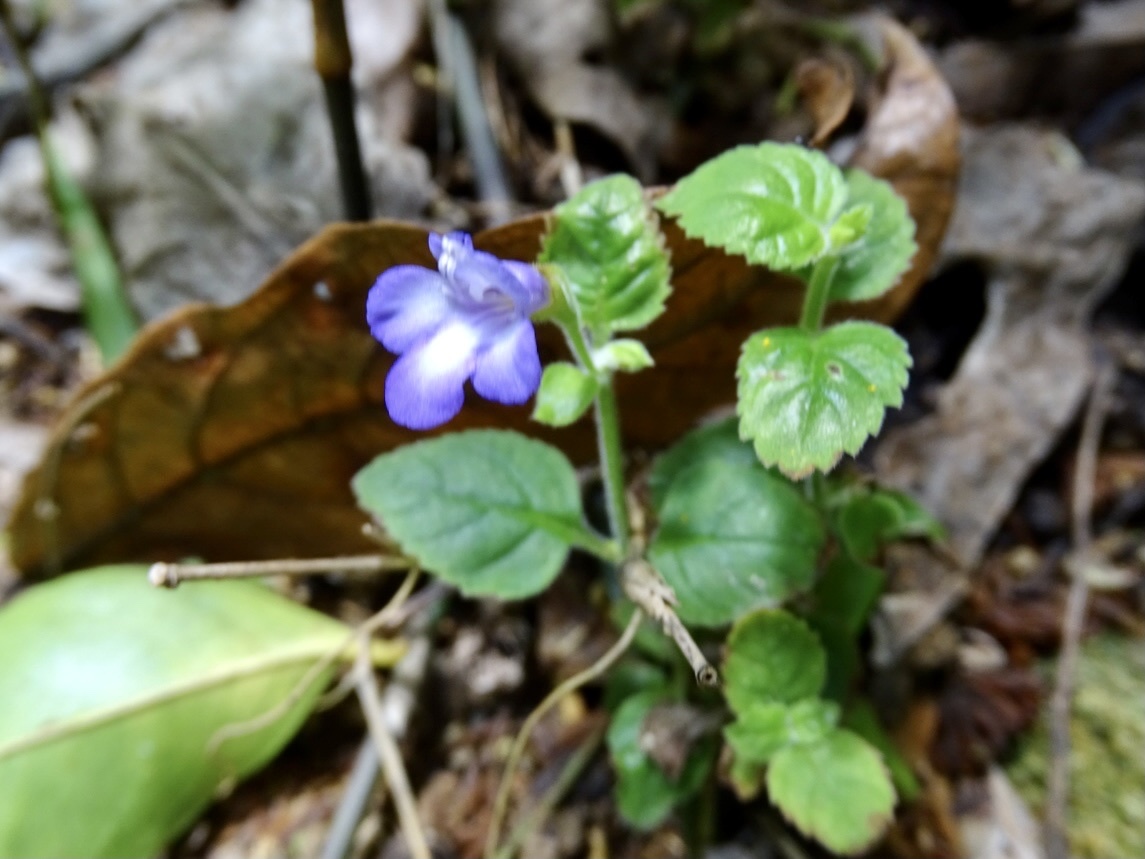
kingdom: Plantae
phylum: Tracheophyta
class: Magnoliopsida
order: Lamiales
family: Linderniaceae
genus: Torenia
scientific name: Torenia benthamiana
